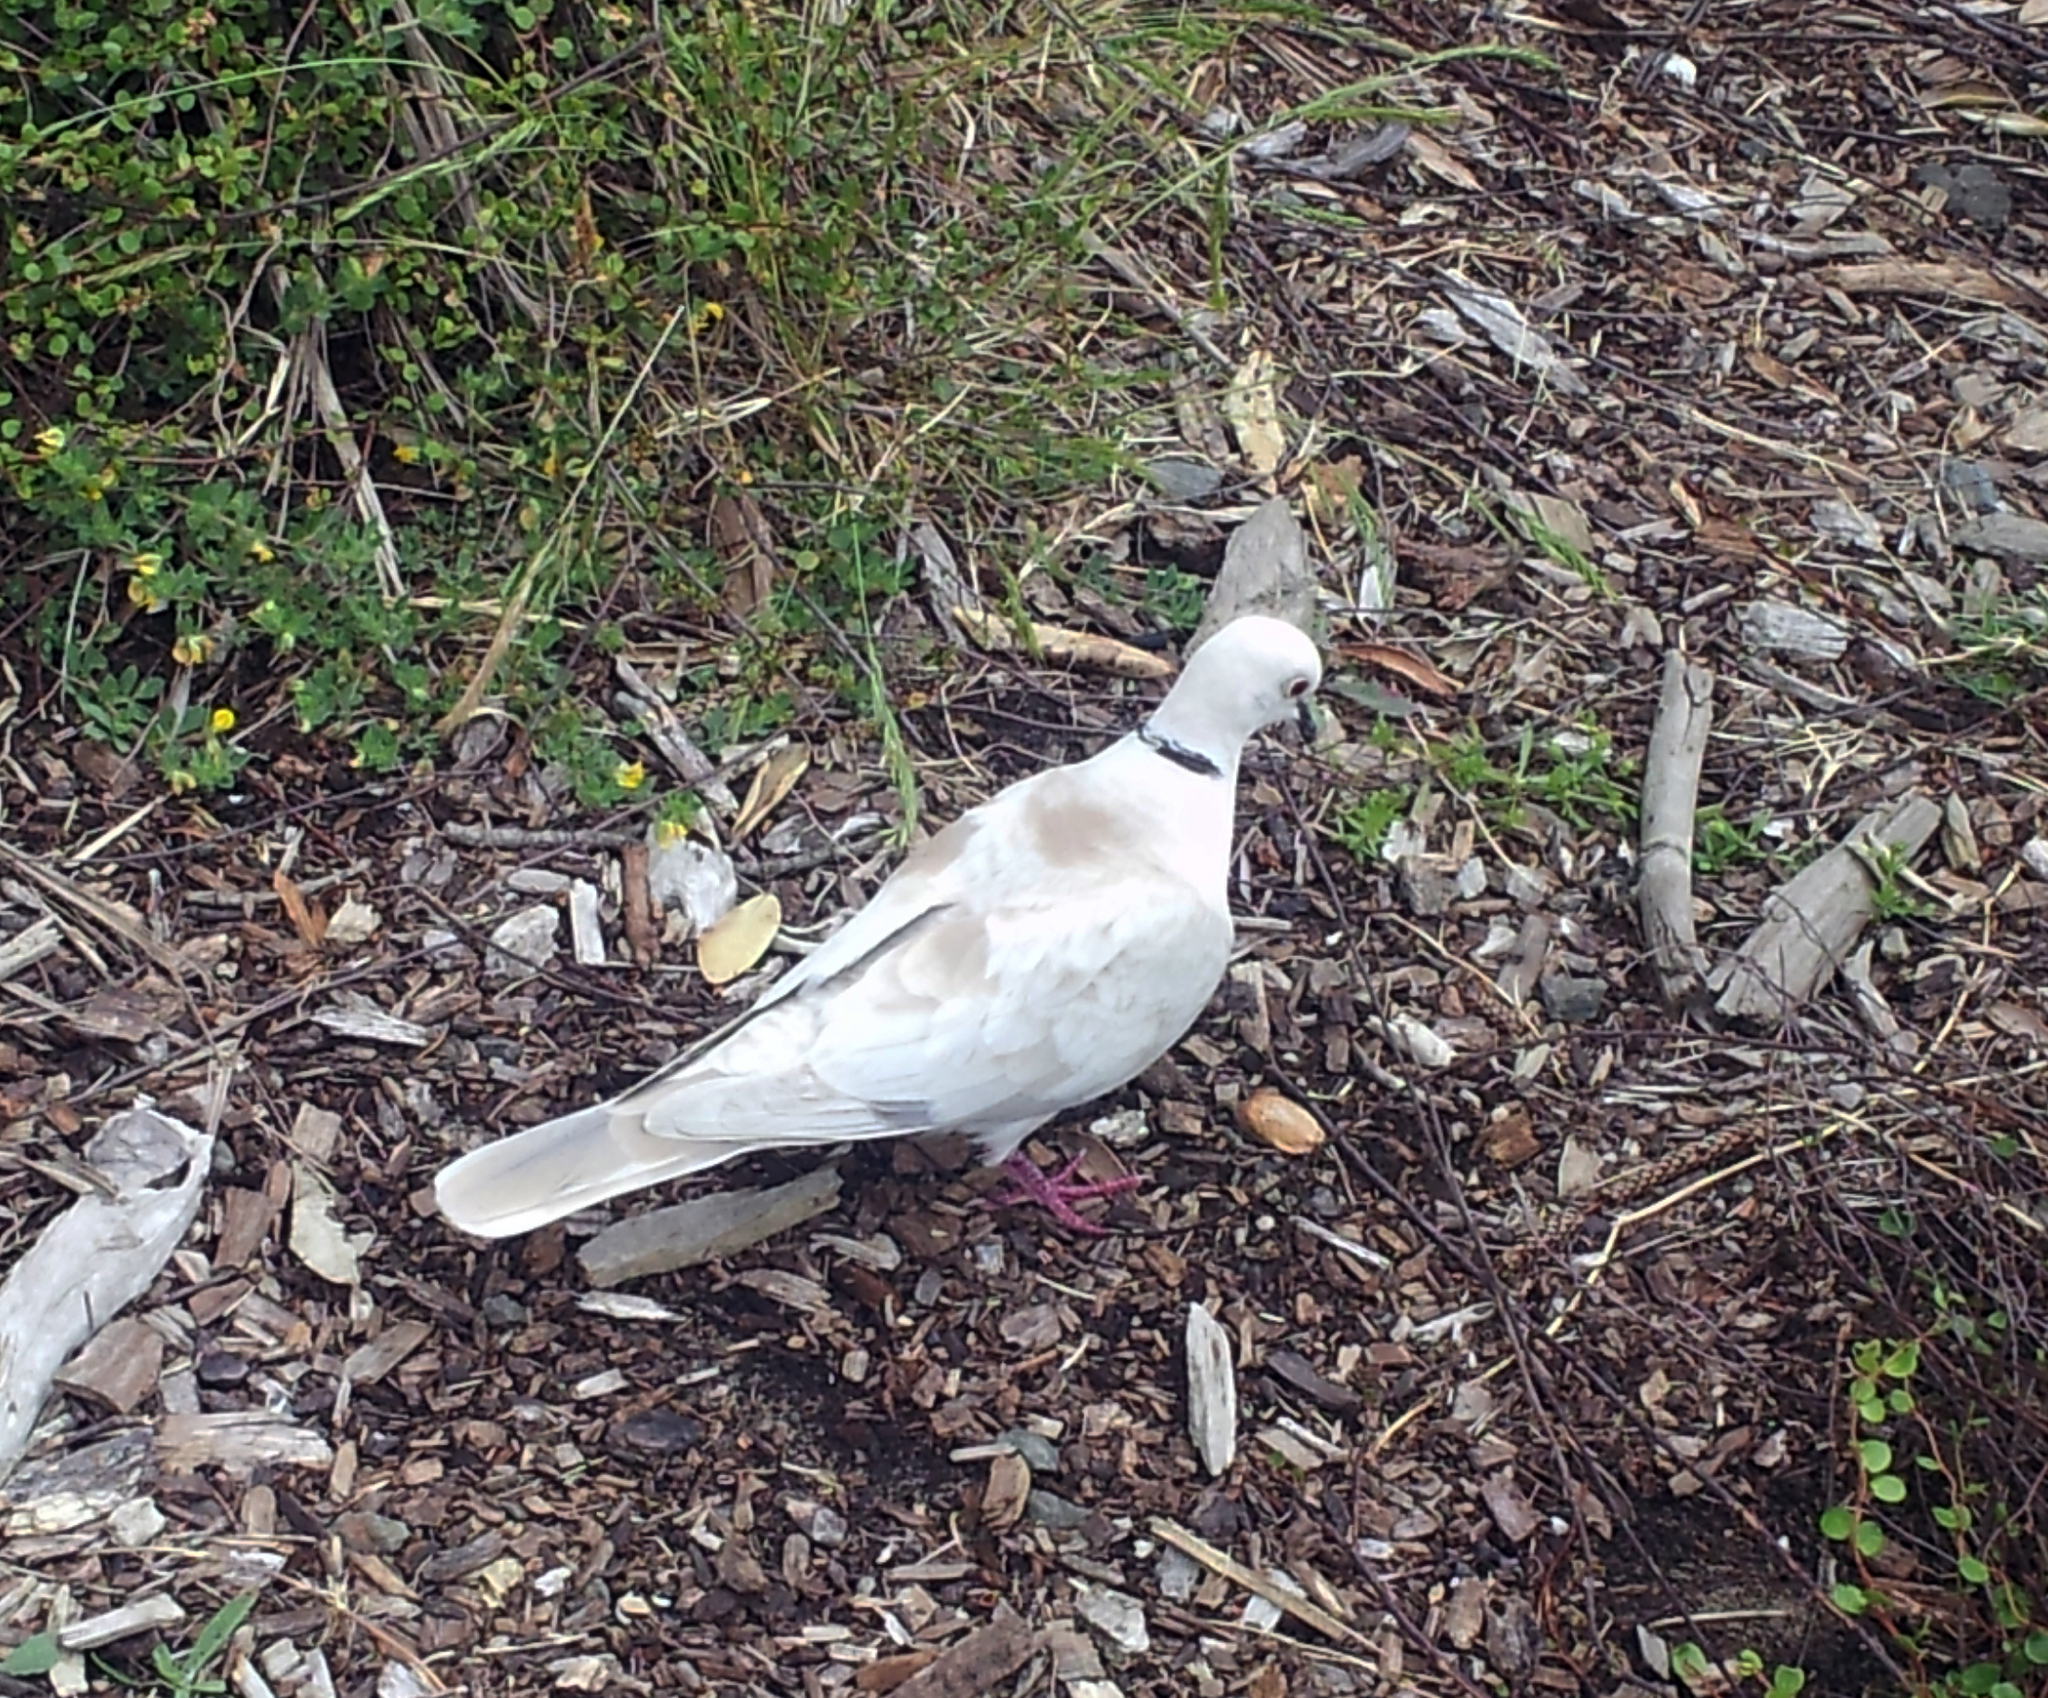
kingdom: Animalia
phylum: Chordata
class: Aves
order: Columbiformes
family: Columbidae
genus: Streptopelia
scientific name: Streptopelia roseogrisea
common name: African collared dove
